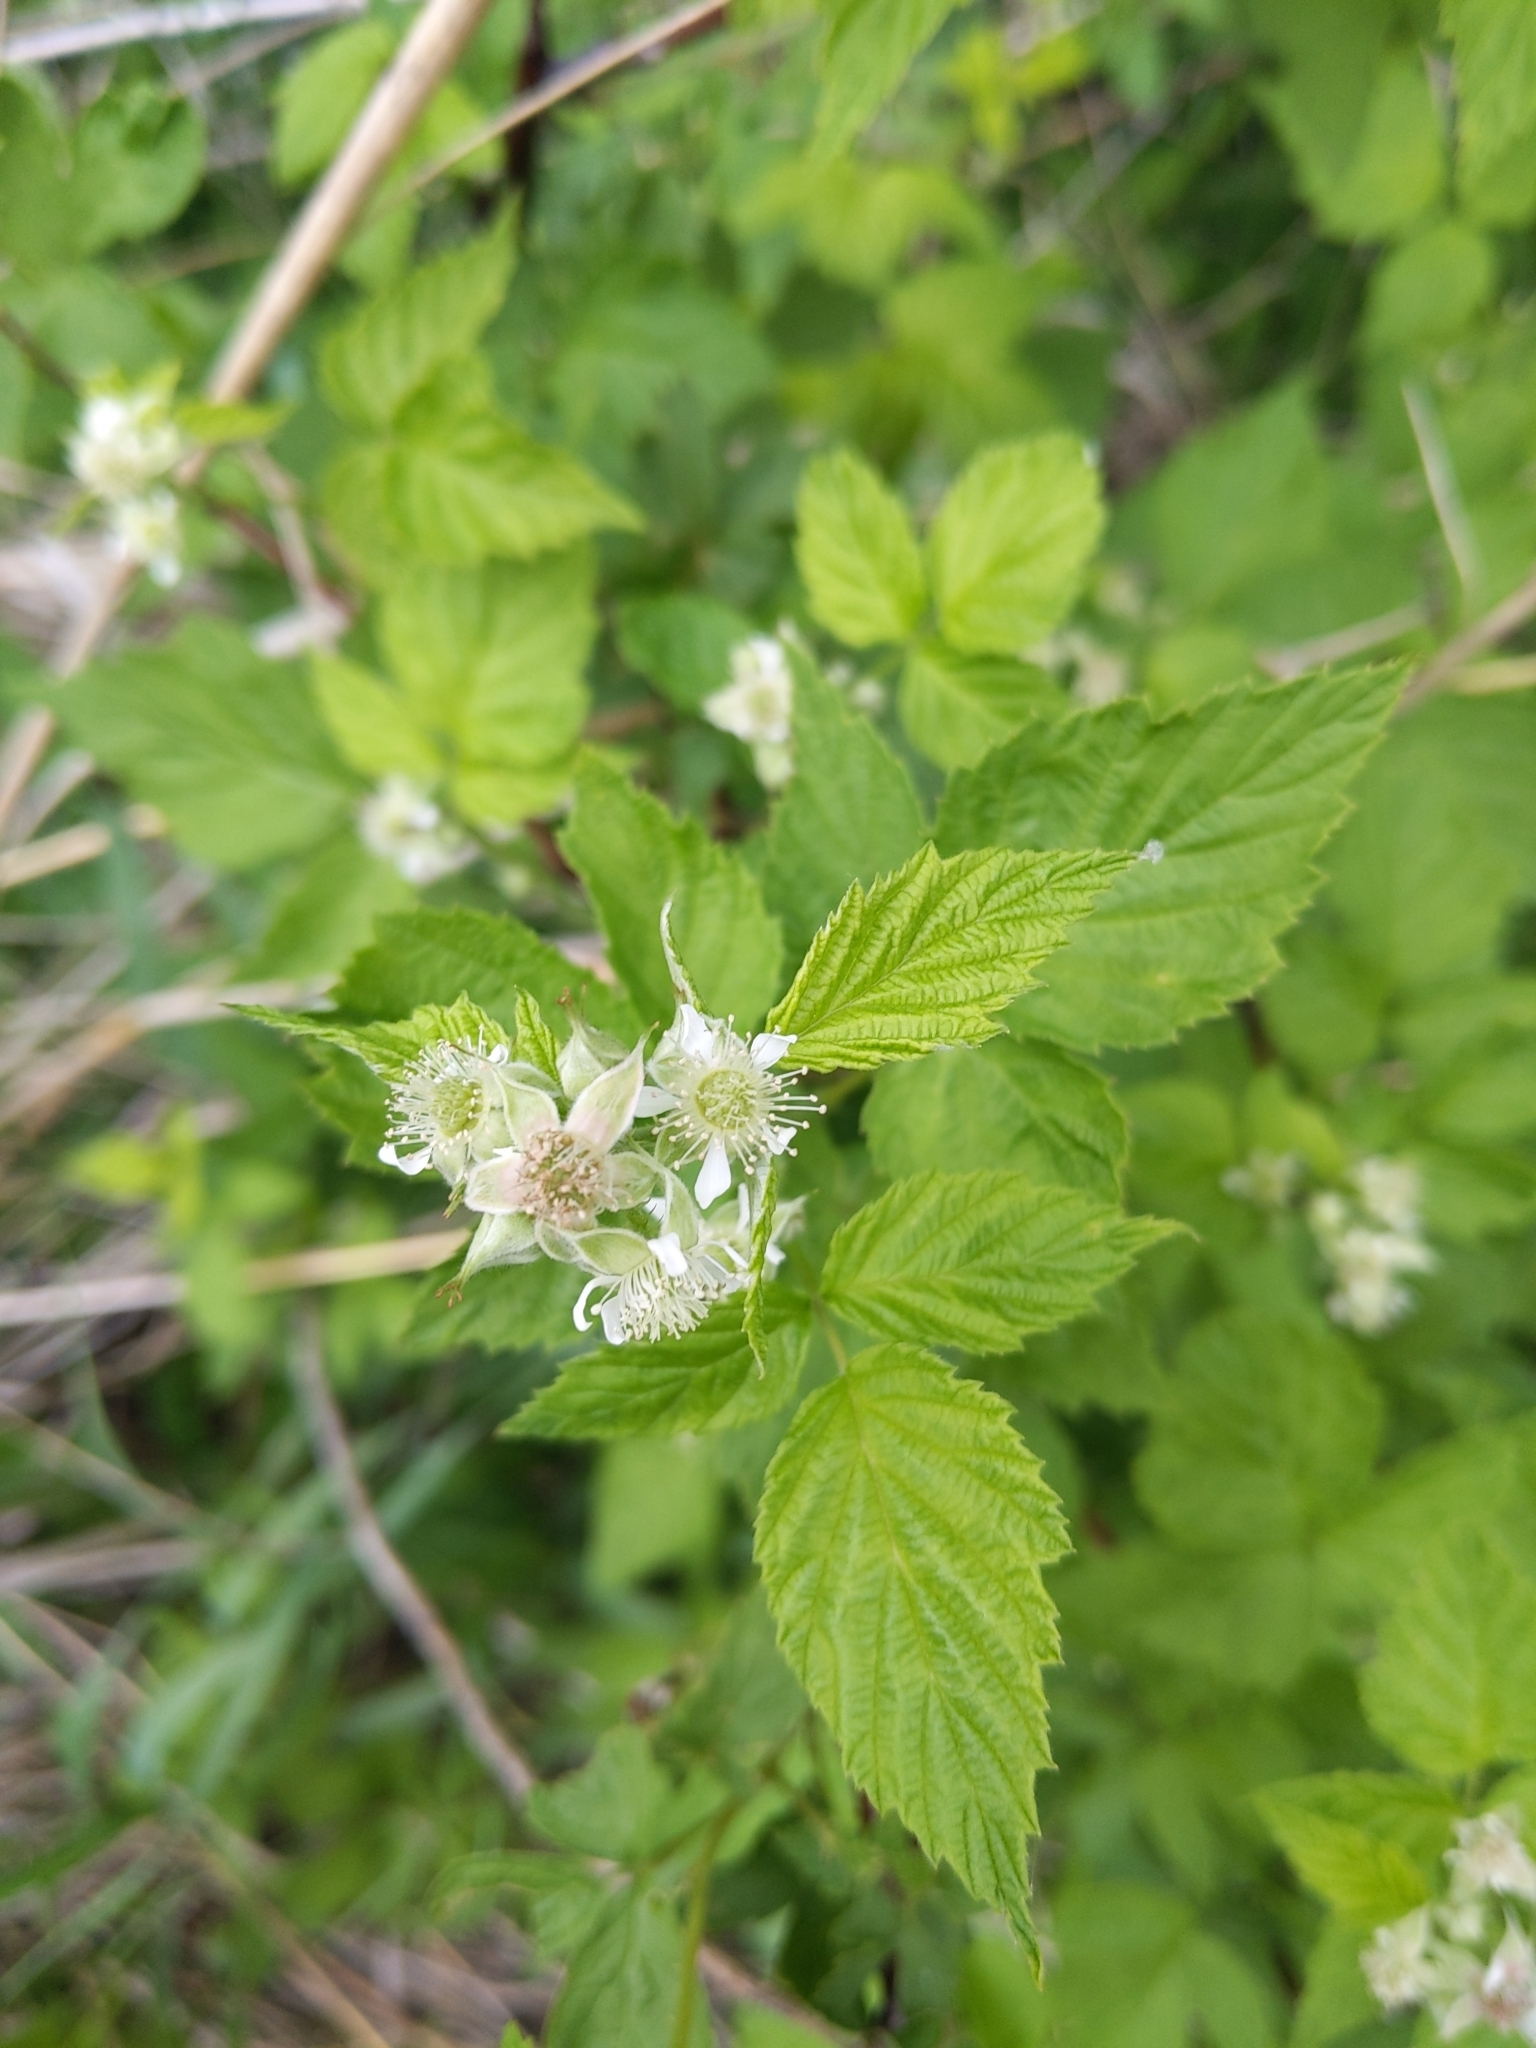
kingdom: Plantae
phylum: Tracheophyta
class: Magnoliopsida
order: Rosales
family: Rosaceae
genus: Rubus
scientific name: Rubus occidentalis
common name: Black raspberry
